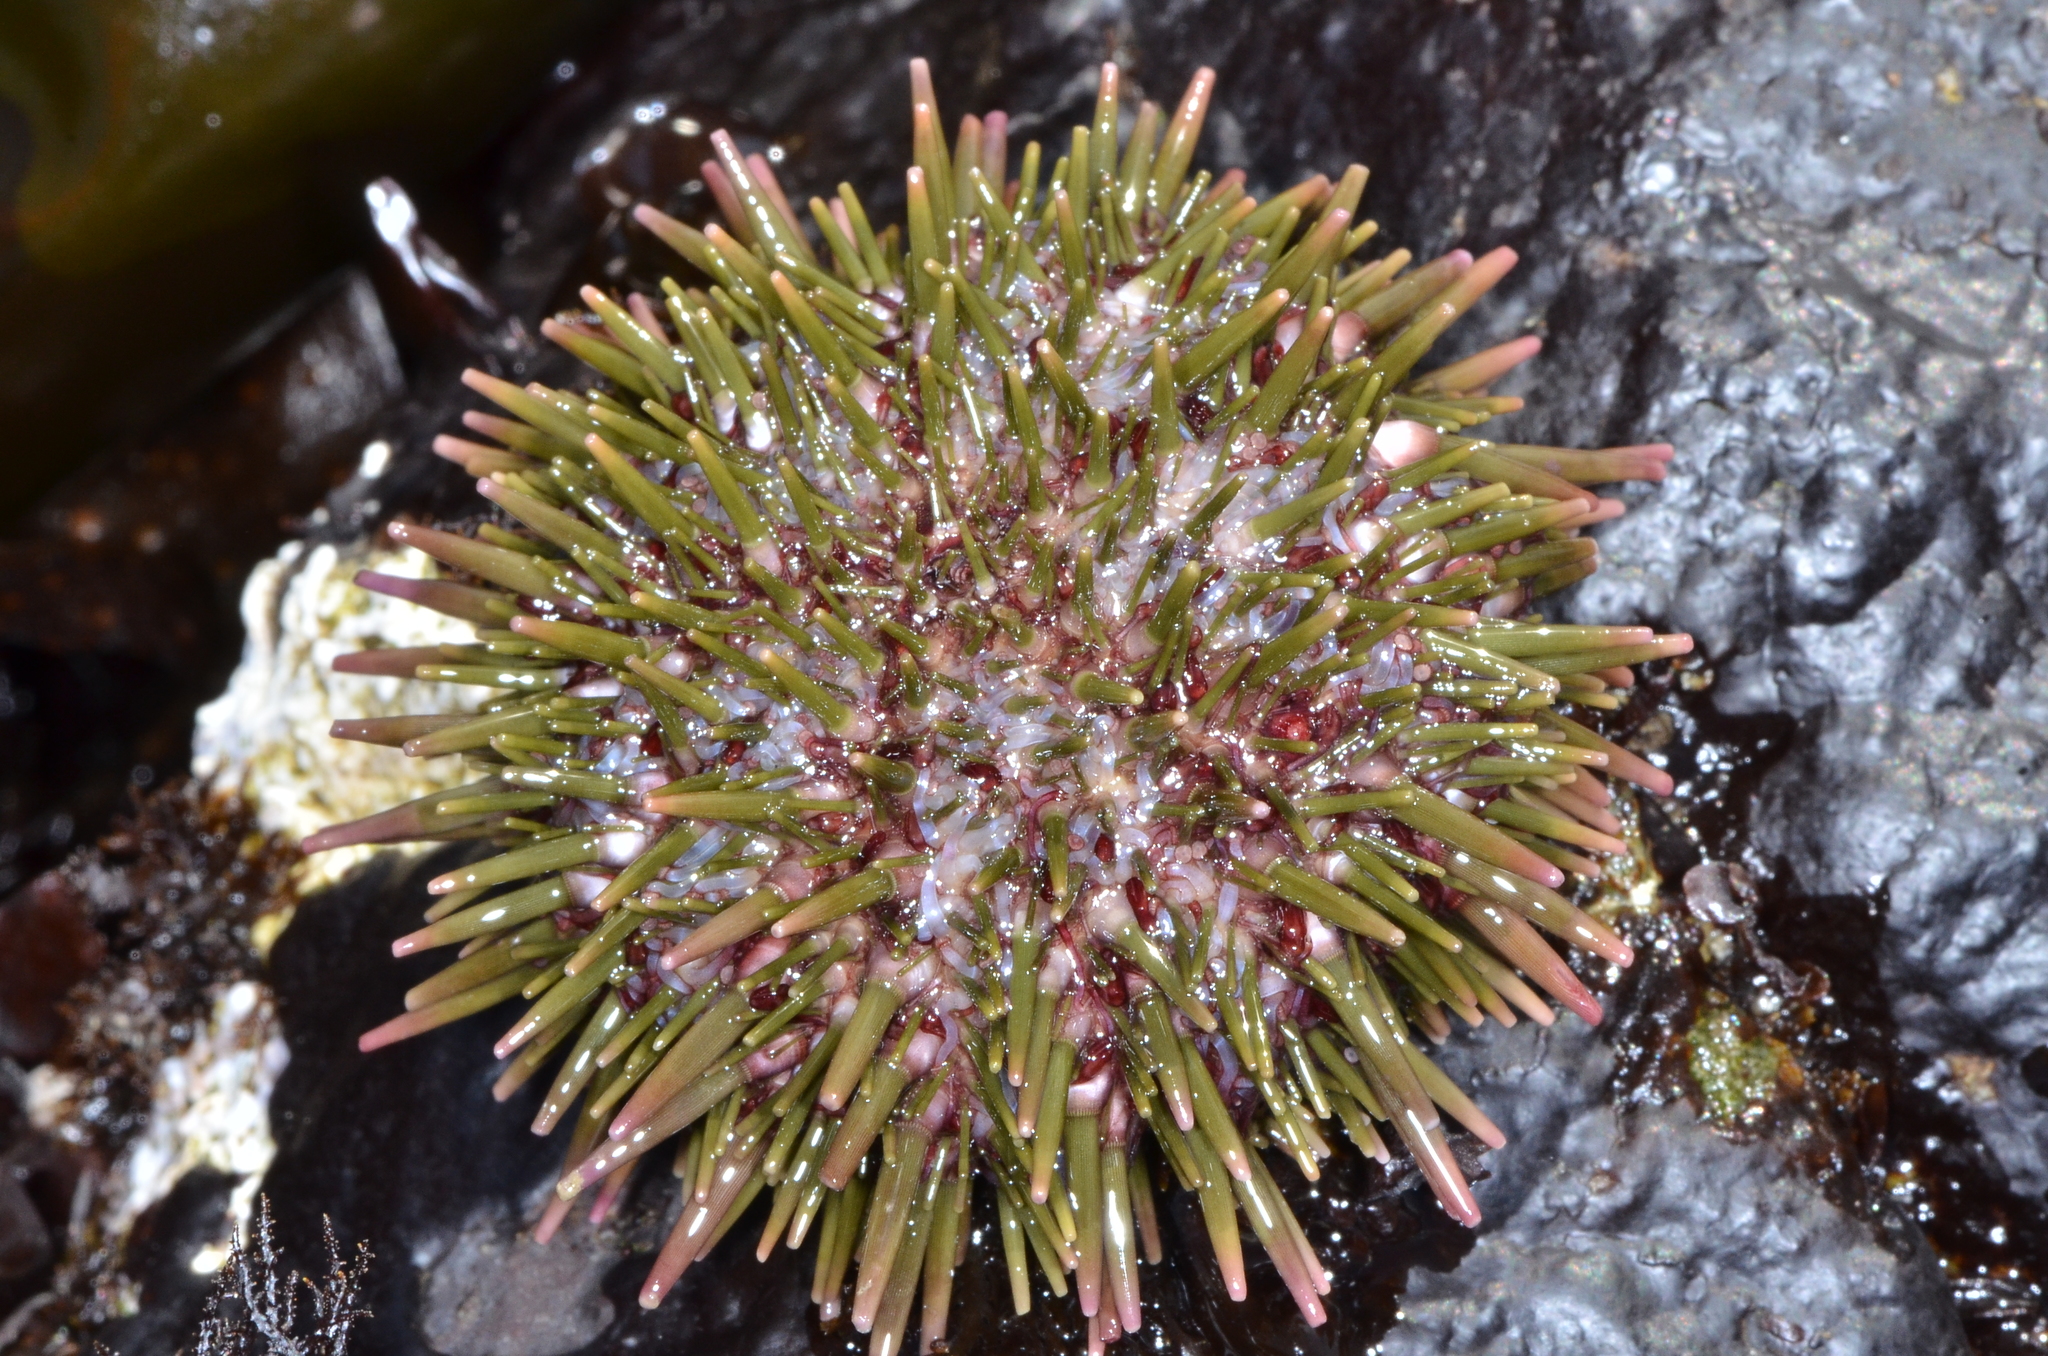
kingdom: Animalia
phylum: Echinodermata
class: Echinoidea
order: Camarodonta
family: Strongylocentrotidae
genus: Strongylocentrotus
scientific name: Strongylocentrotus purpuratus
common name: Purple sea urchin
